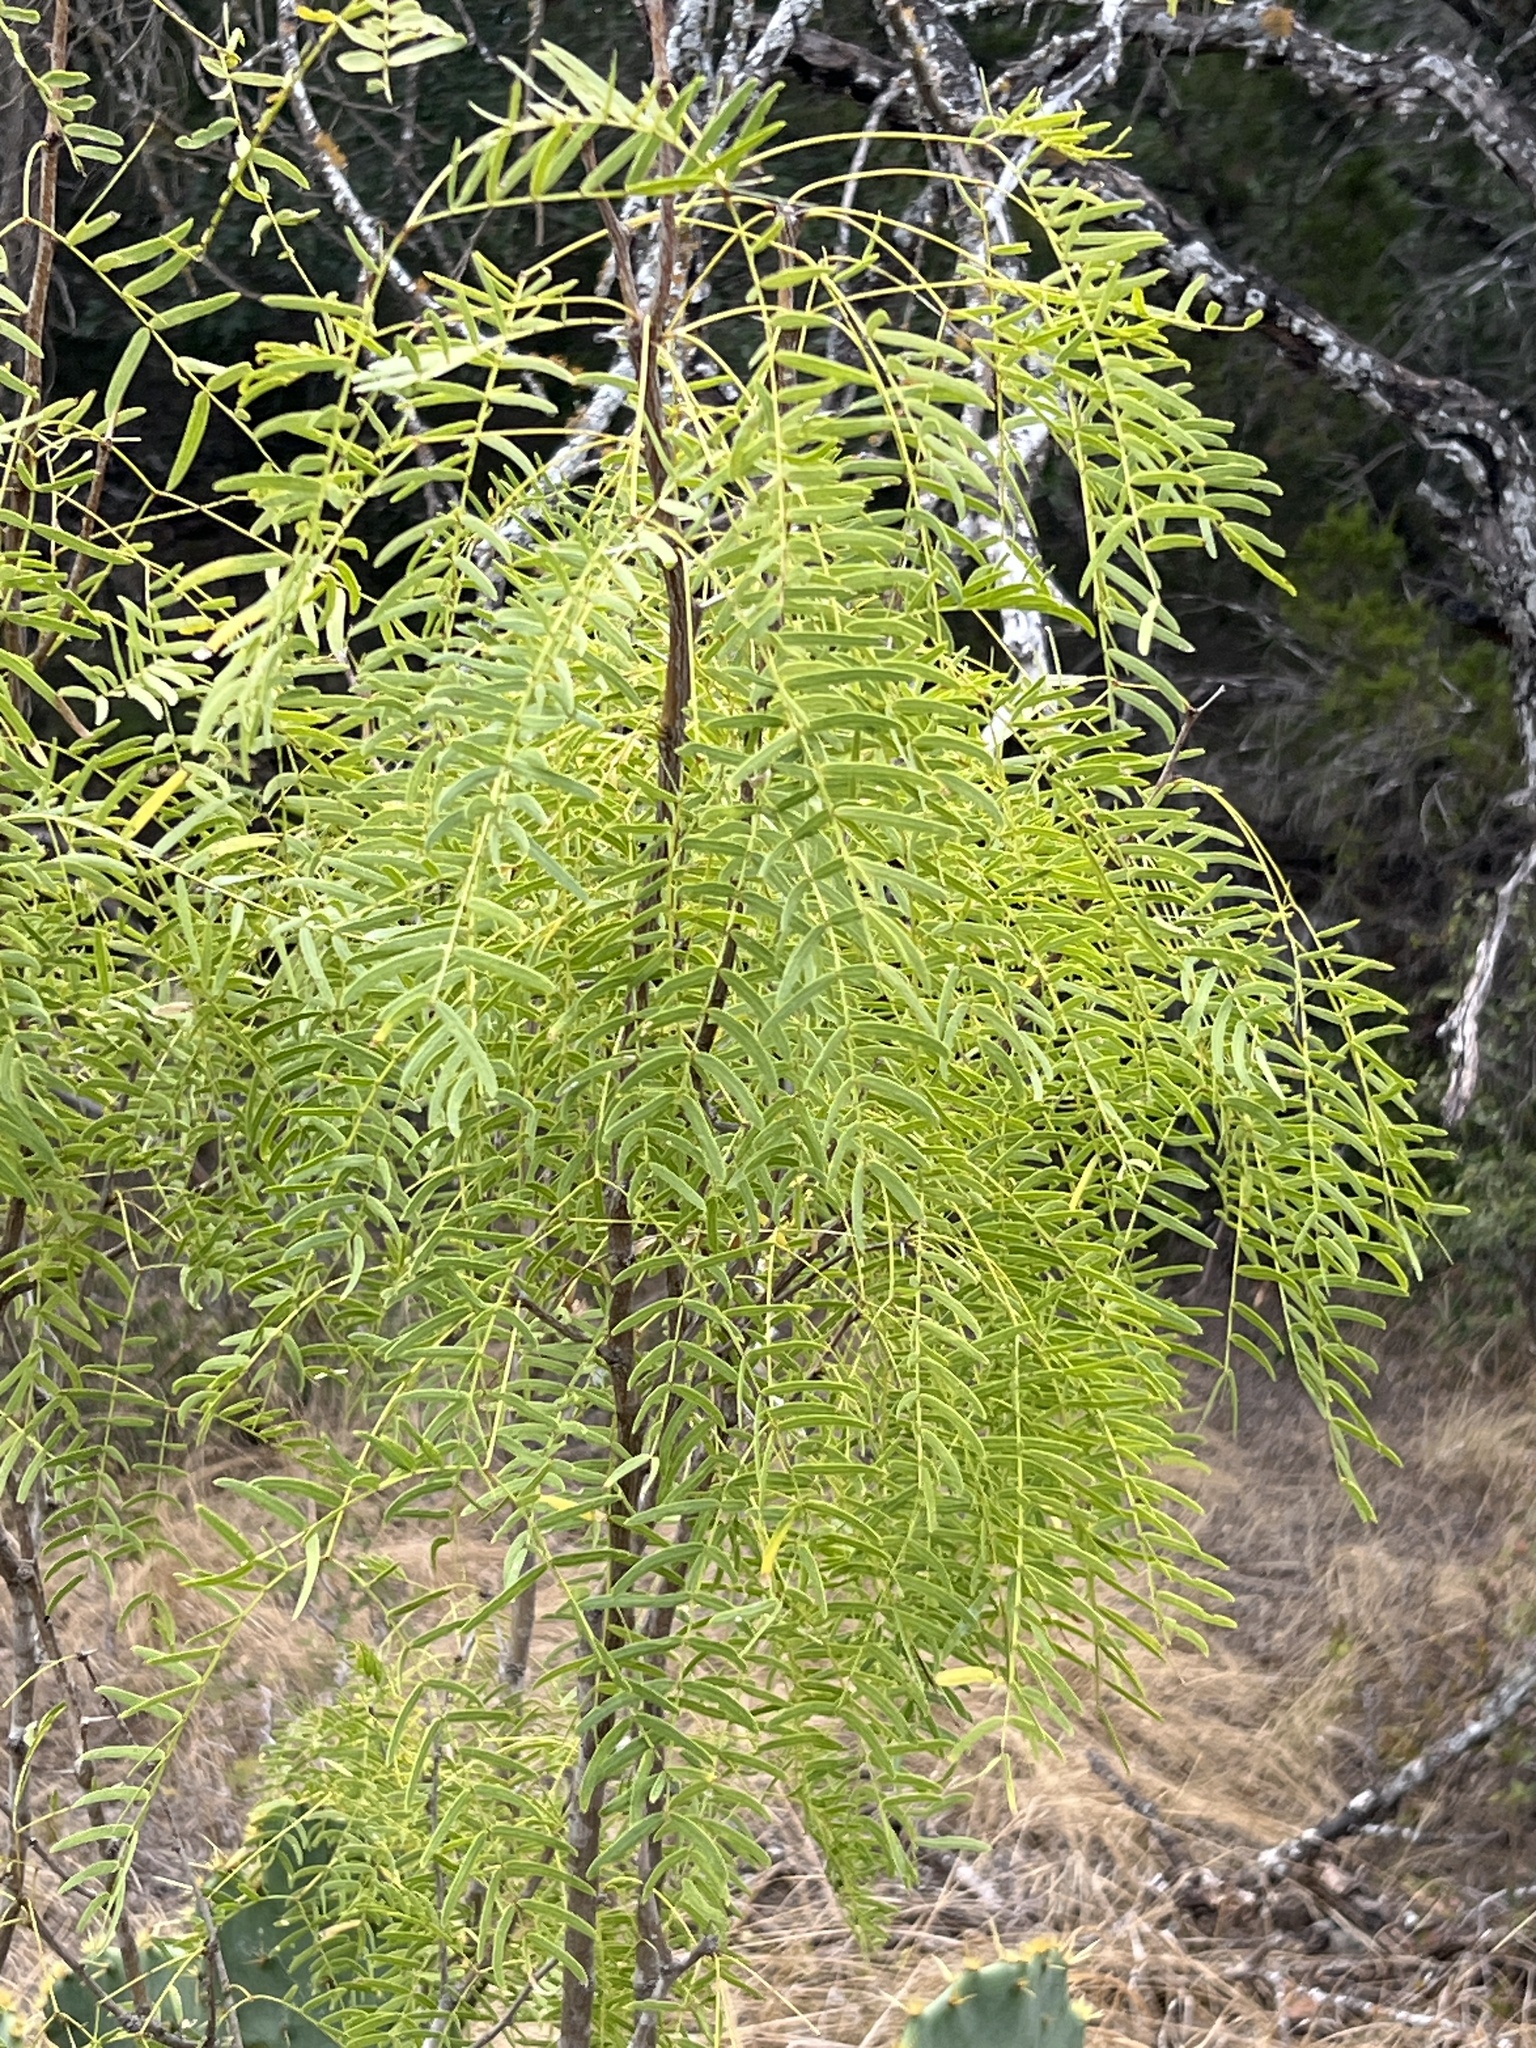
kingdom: Plantae
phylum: Tracheophyta
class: Magnoliopsida
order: Fabales
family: Fabaceae
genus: Prosopis
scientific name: Prosopis glandulosa
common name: Honey mesquite
